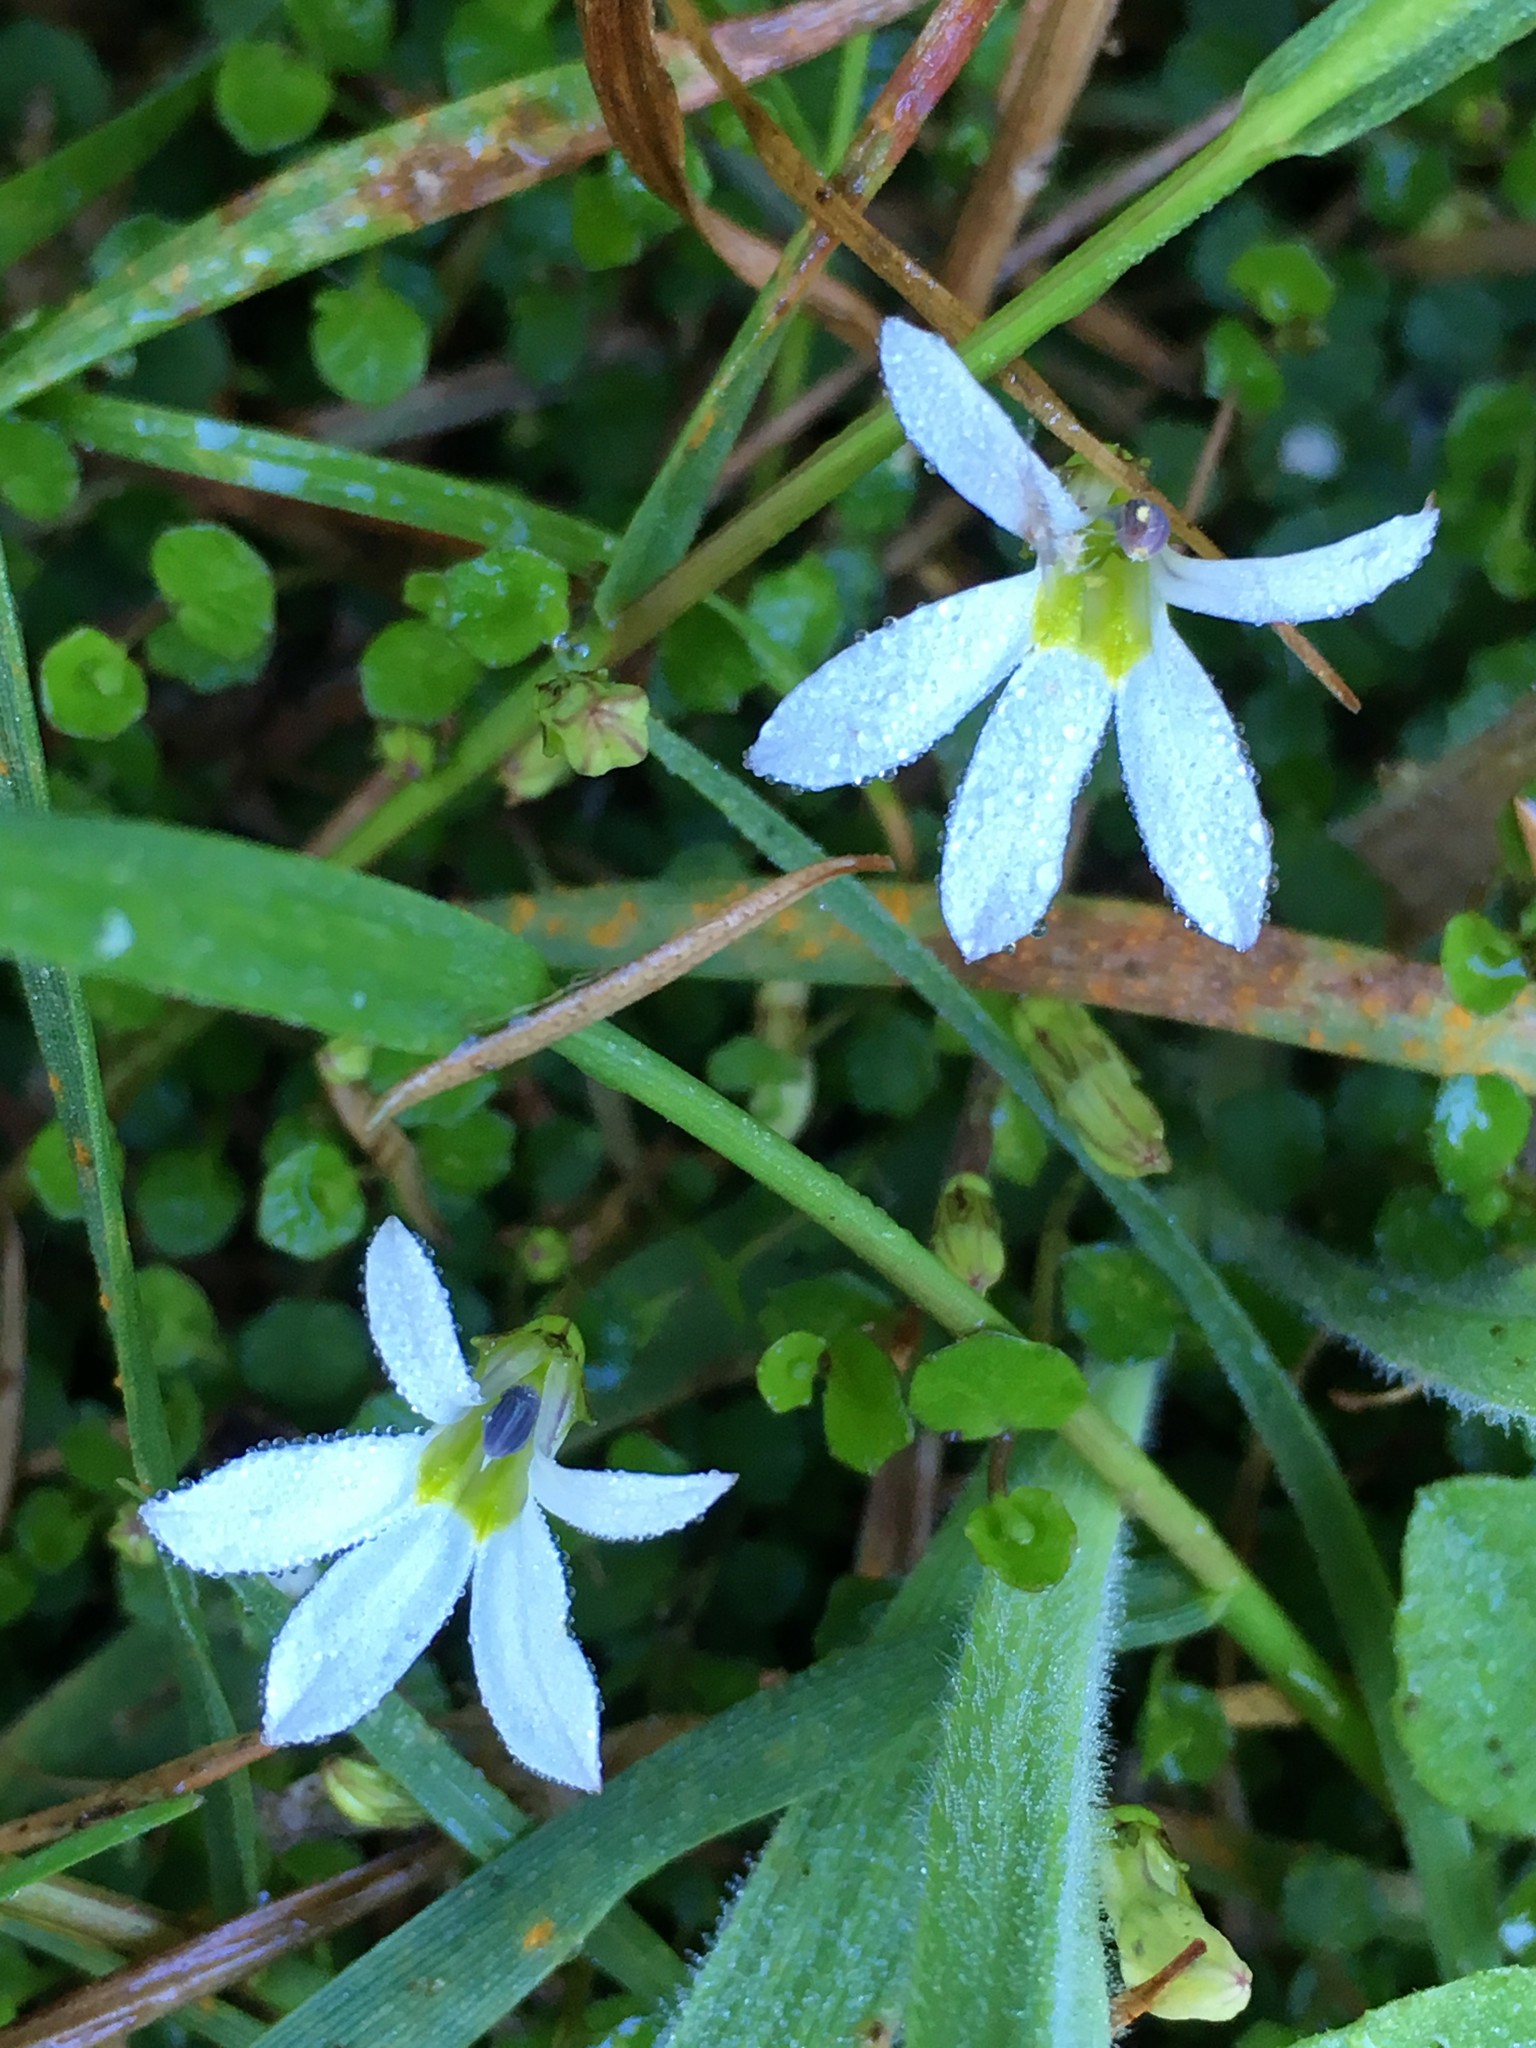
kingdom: Plantae
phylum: Tracheophyta
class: Magnoliopsida
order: Asterales
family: Campanulaceae
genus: Lobelia
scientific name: Lobelia angulata
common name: Lawn lobelia
